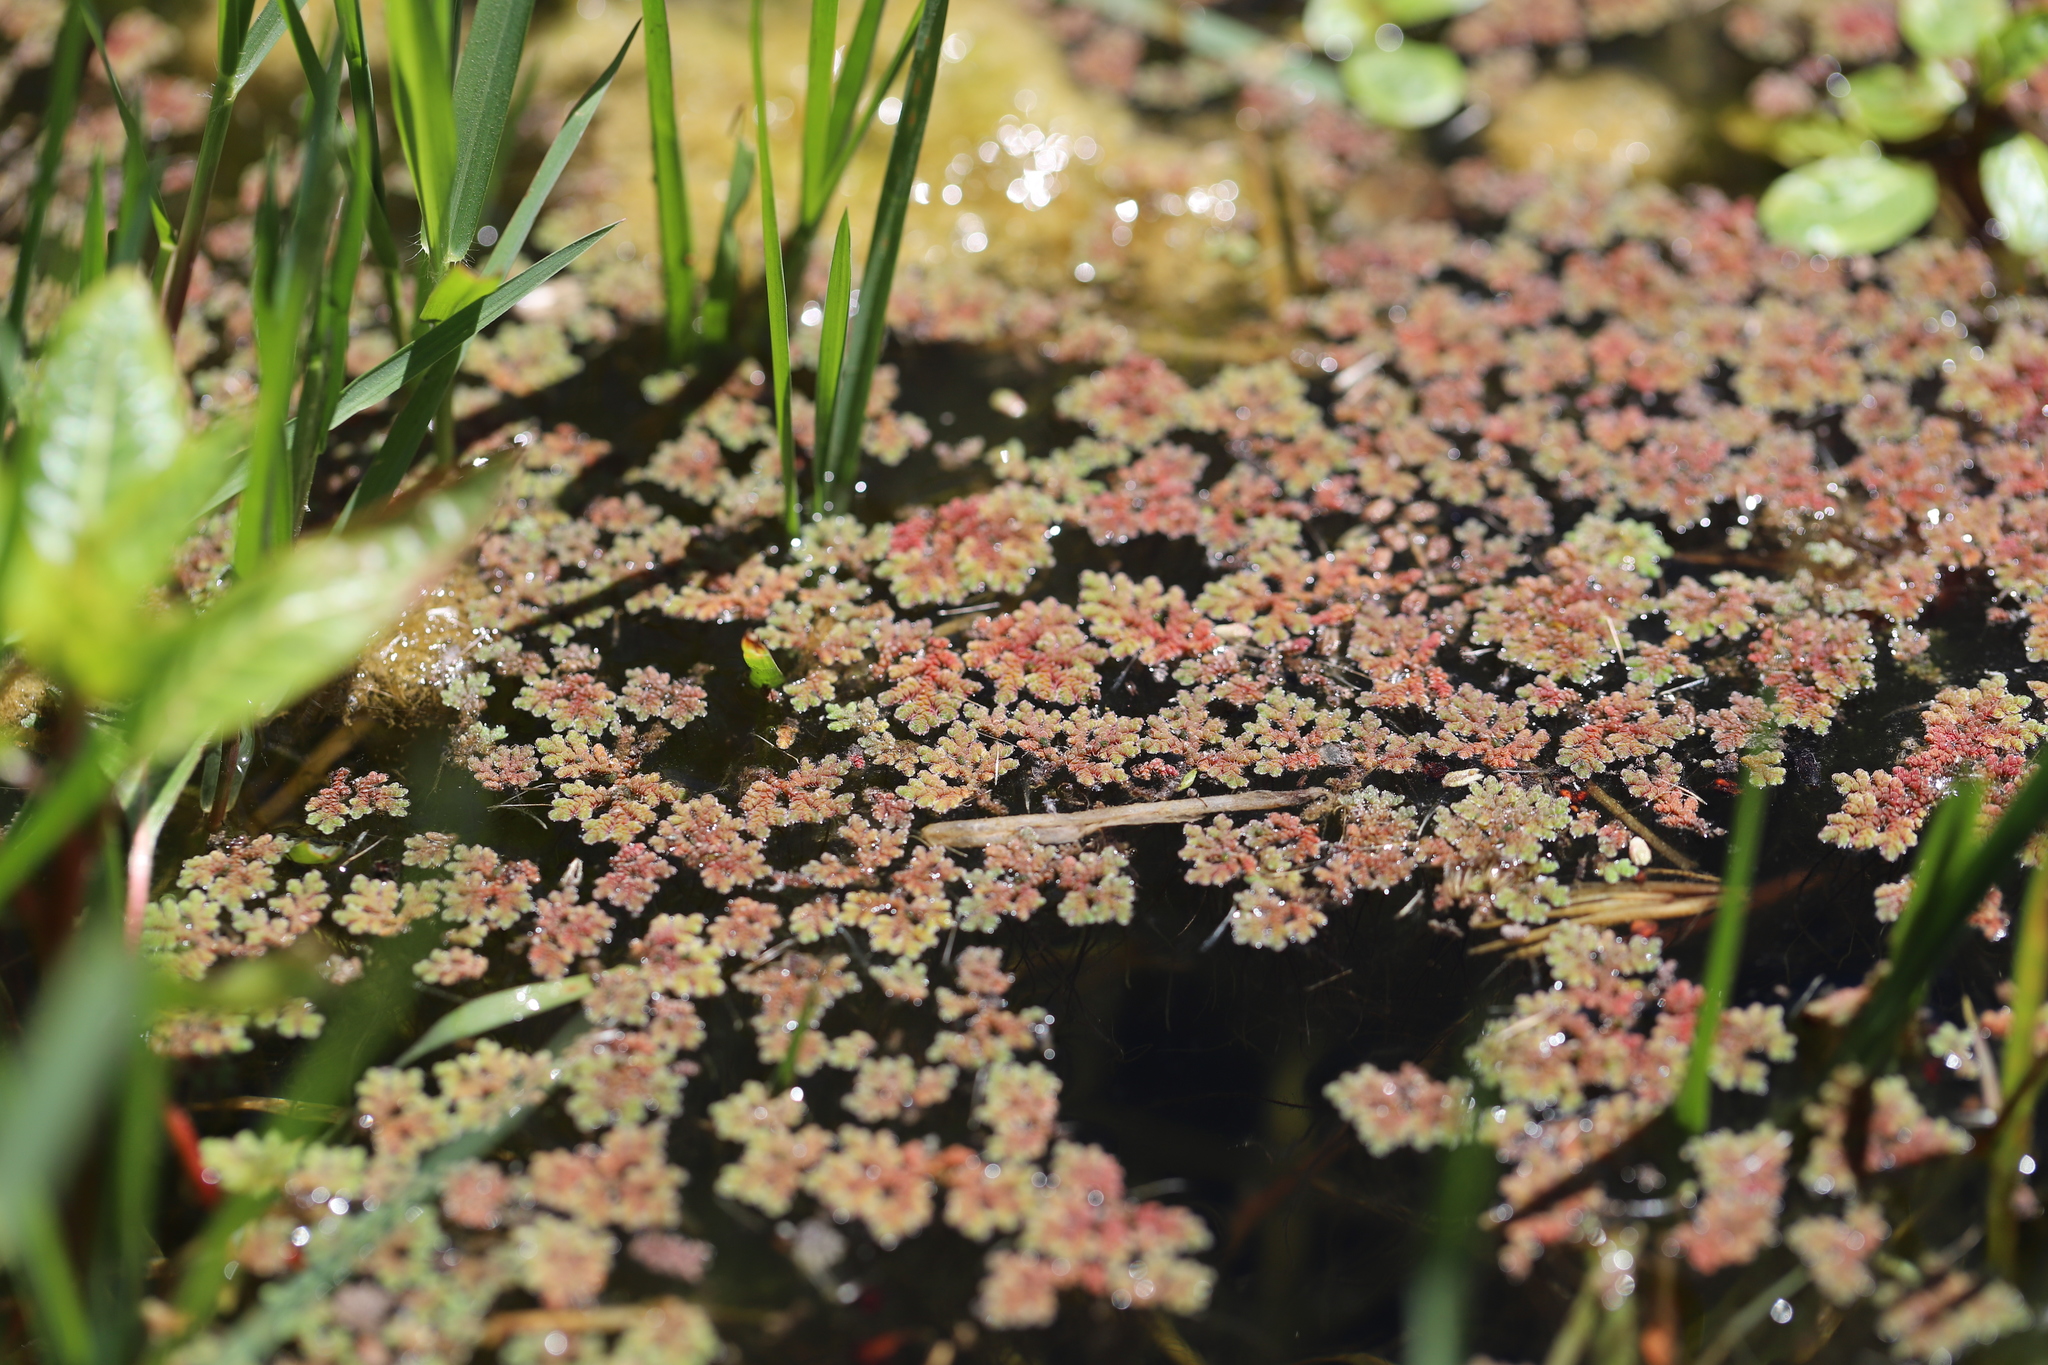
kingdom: Plantae
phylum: Tracheophyta
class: Polypodiopsida
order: Salviniales
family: Salviniaceae
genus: Azolla
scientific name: Azolla filiculoides
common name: Water fern
